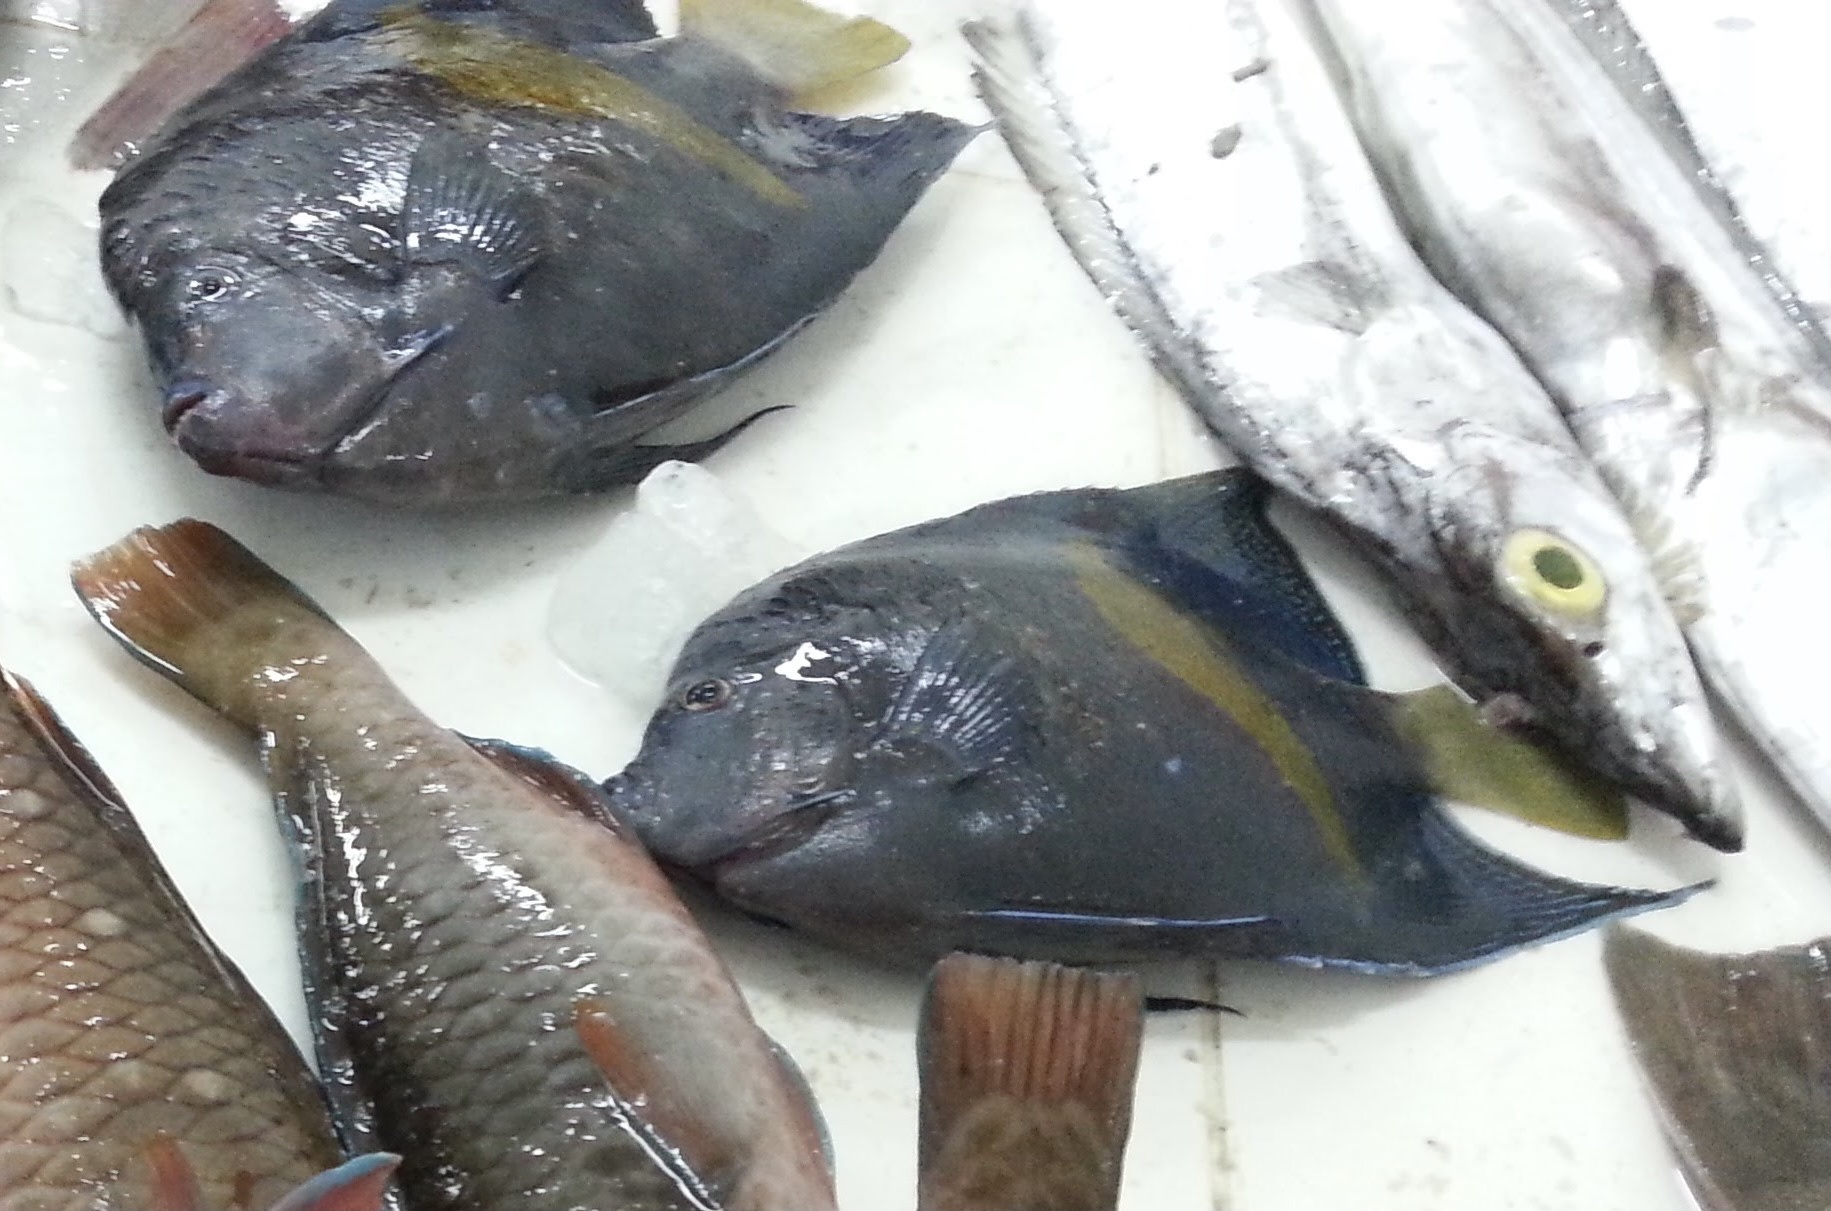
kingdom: Animalia
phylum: Chordata
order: Perciformes
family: Pomacanthidae
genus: Pomacanthus
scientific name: Pomacanthus maculosus
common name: Yellowbar angelfish
